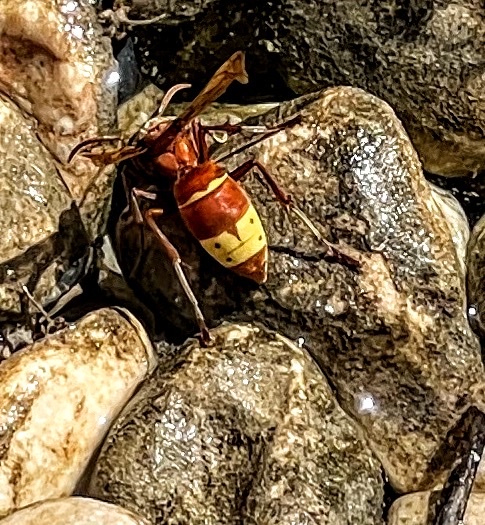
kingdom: Animalia
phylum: Arthropoda
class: Insecta
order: Hymenoptera
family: Vespidae
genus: Vespa
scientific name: Vespa orientalis
